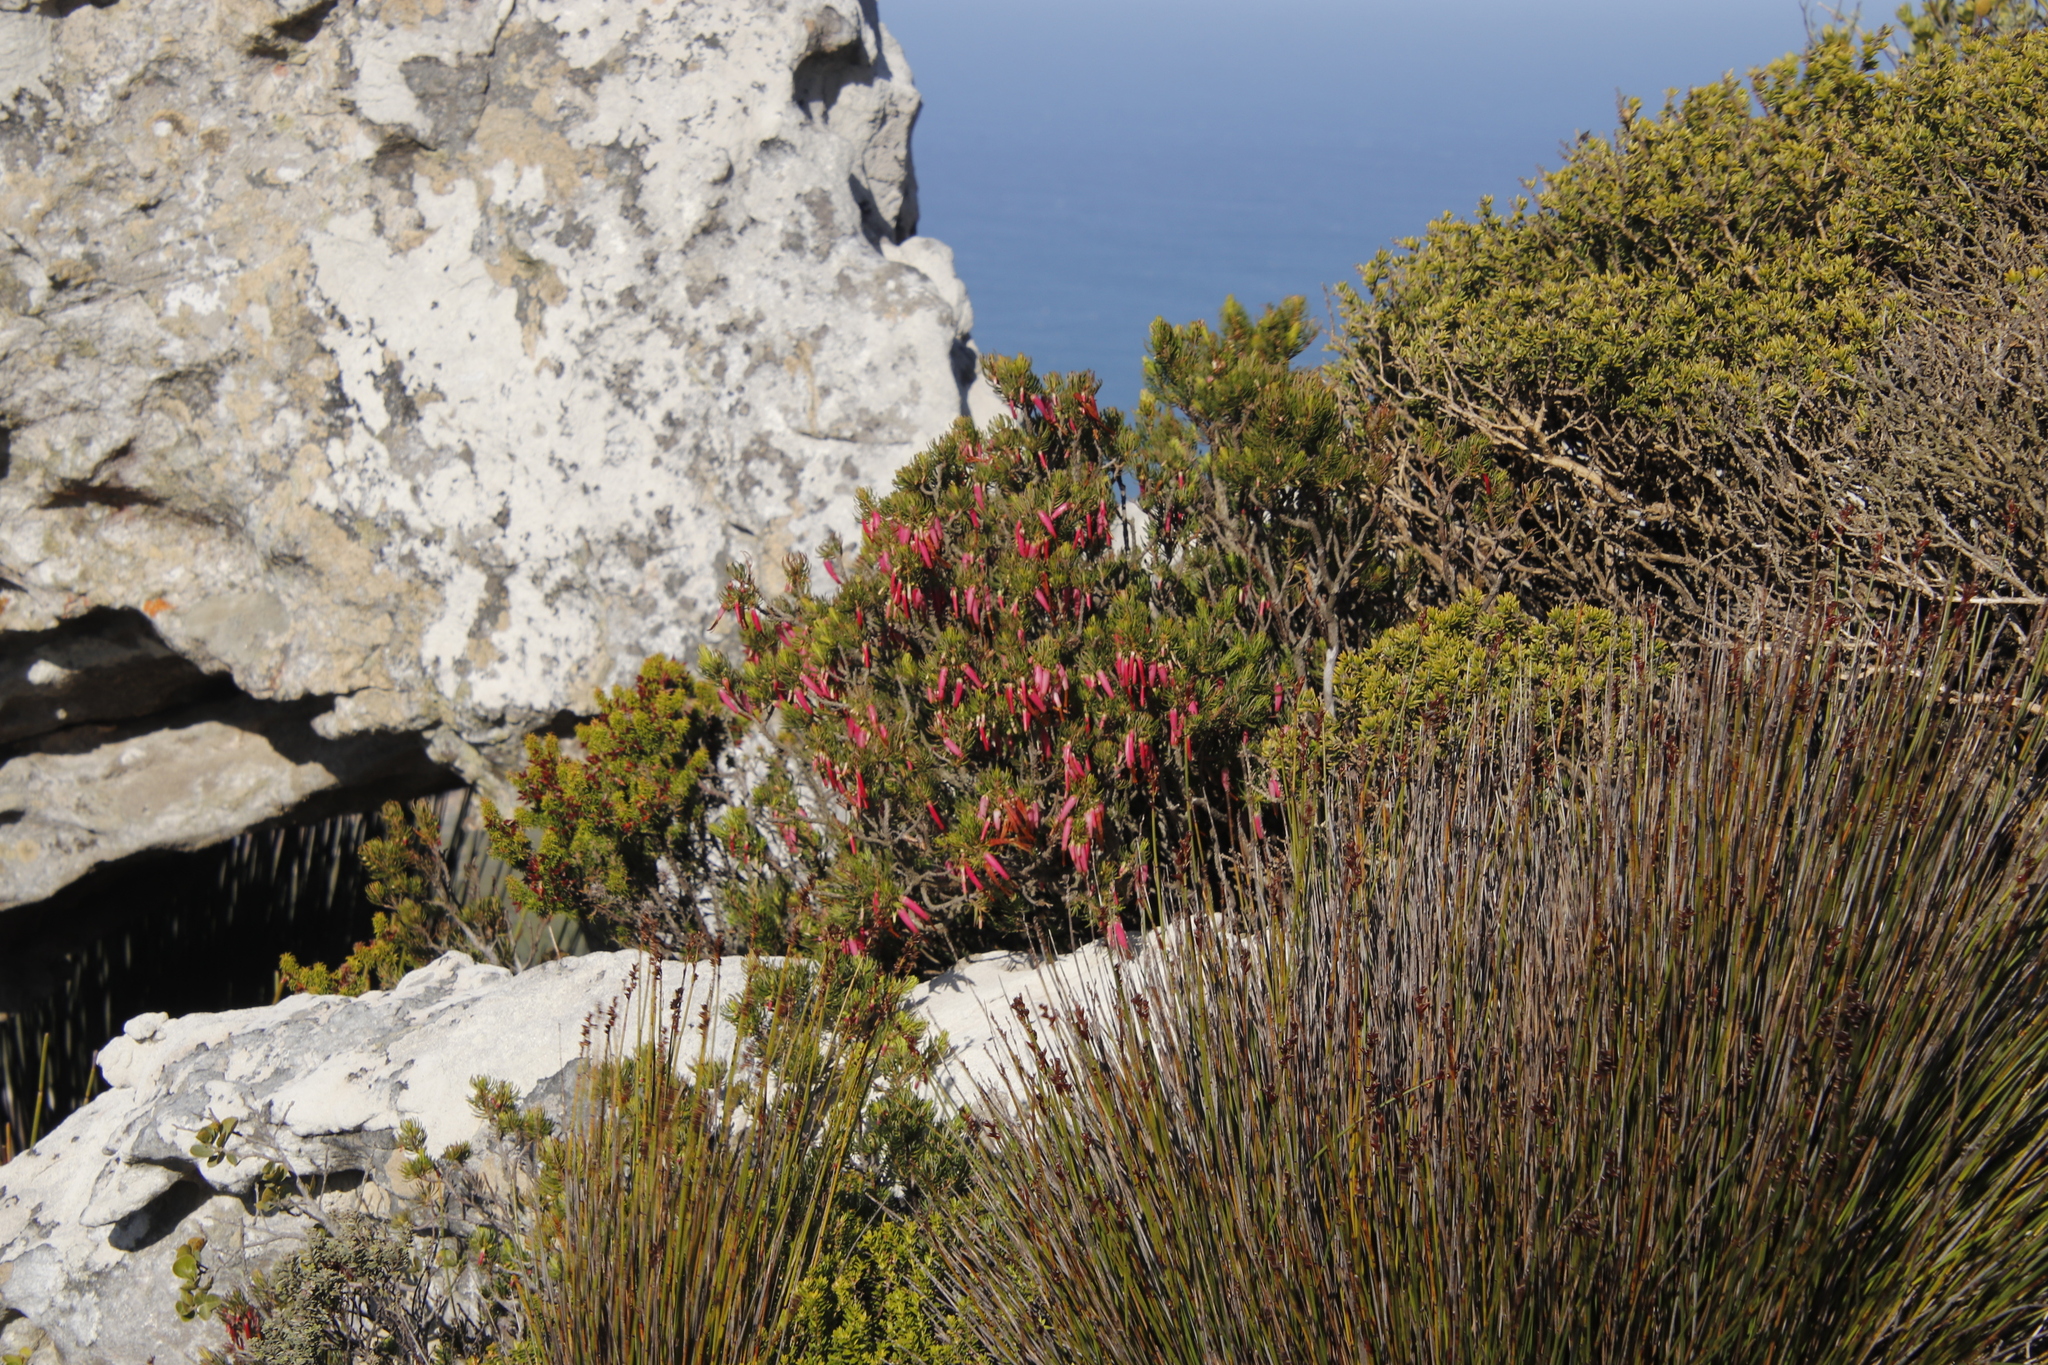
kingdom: Plantae
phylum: Tracheophyta
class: Magnoliopsida
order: Ericales
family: Ericaceae
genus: Erica
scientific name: Erica plukenetii
